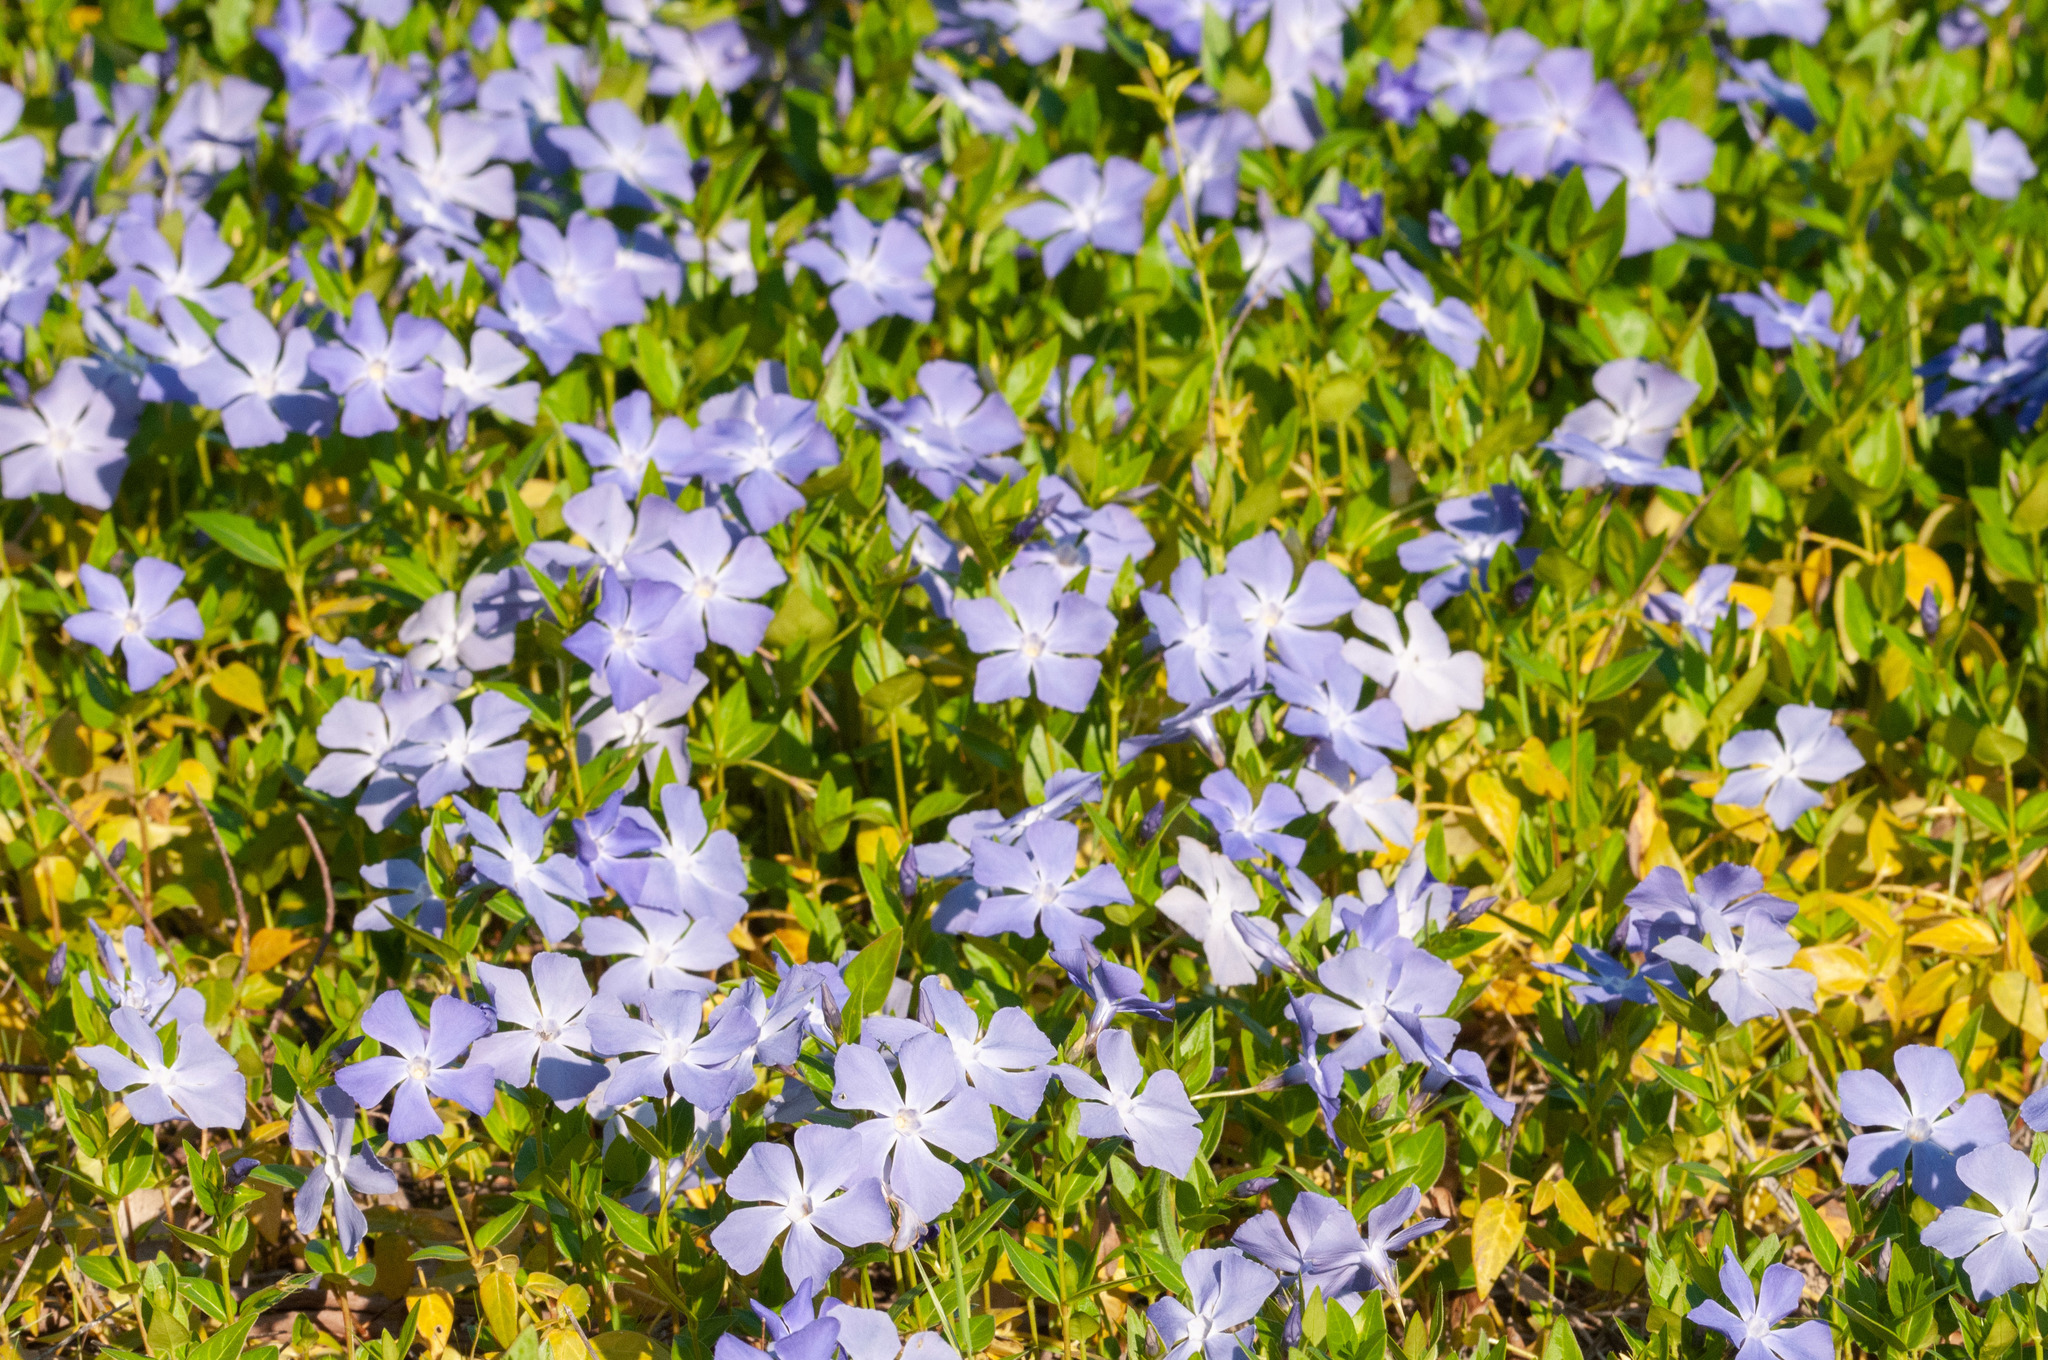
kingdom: Plantae
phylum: Tracheophyta
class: Magnoliopsida
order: Gentianales
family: Apocynaceae
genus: Vinca
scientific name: Vinca major
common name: Greater periwinkle
